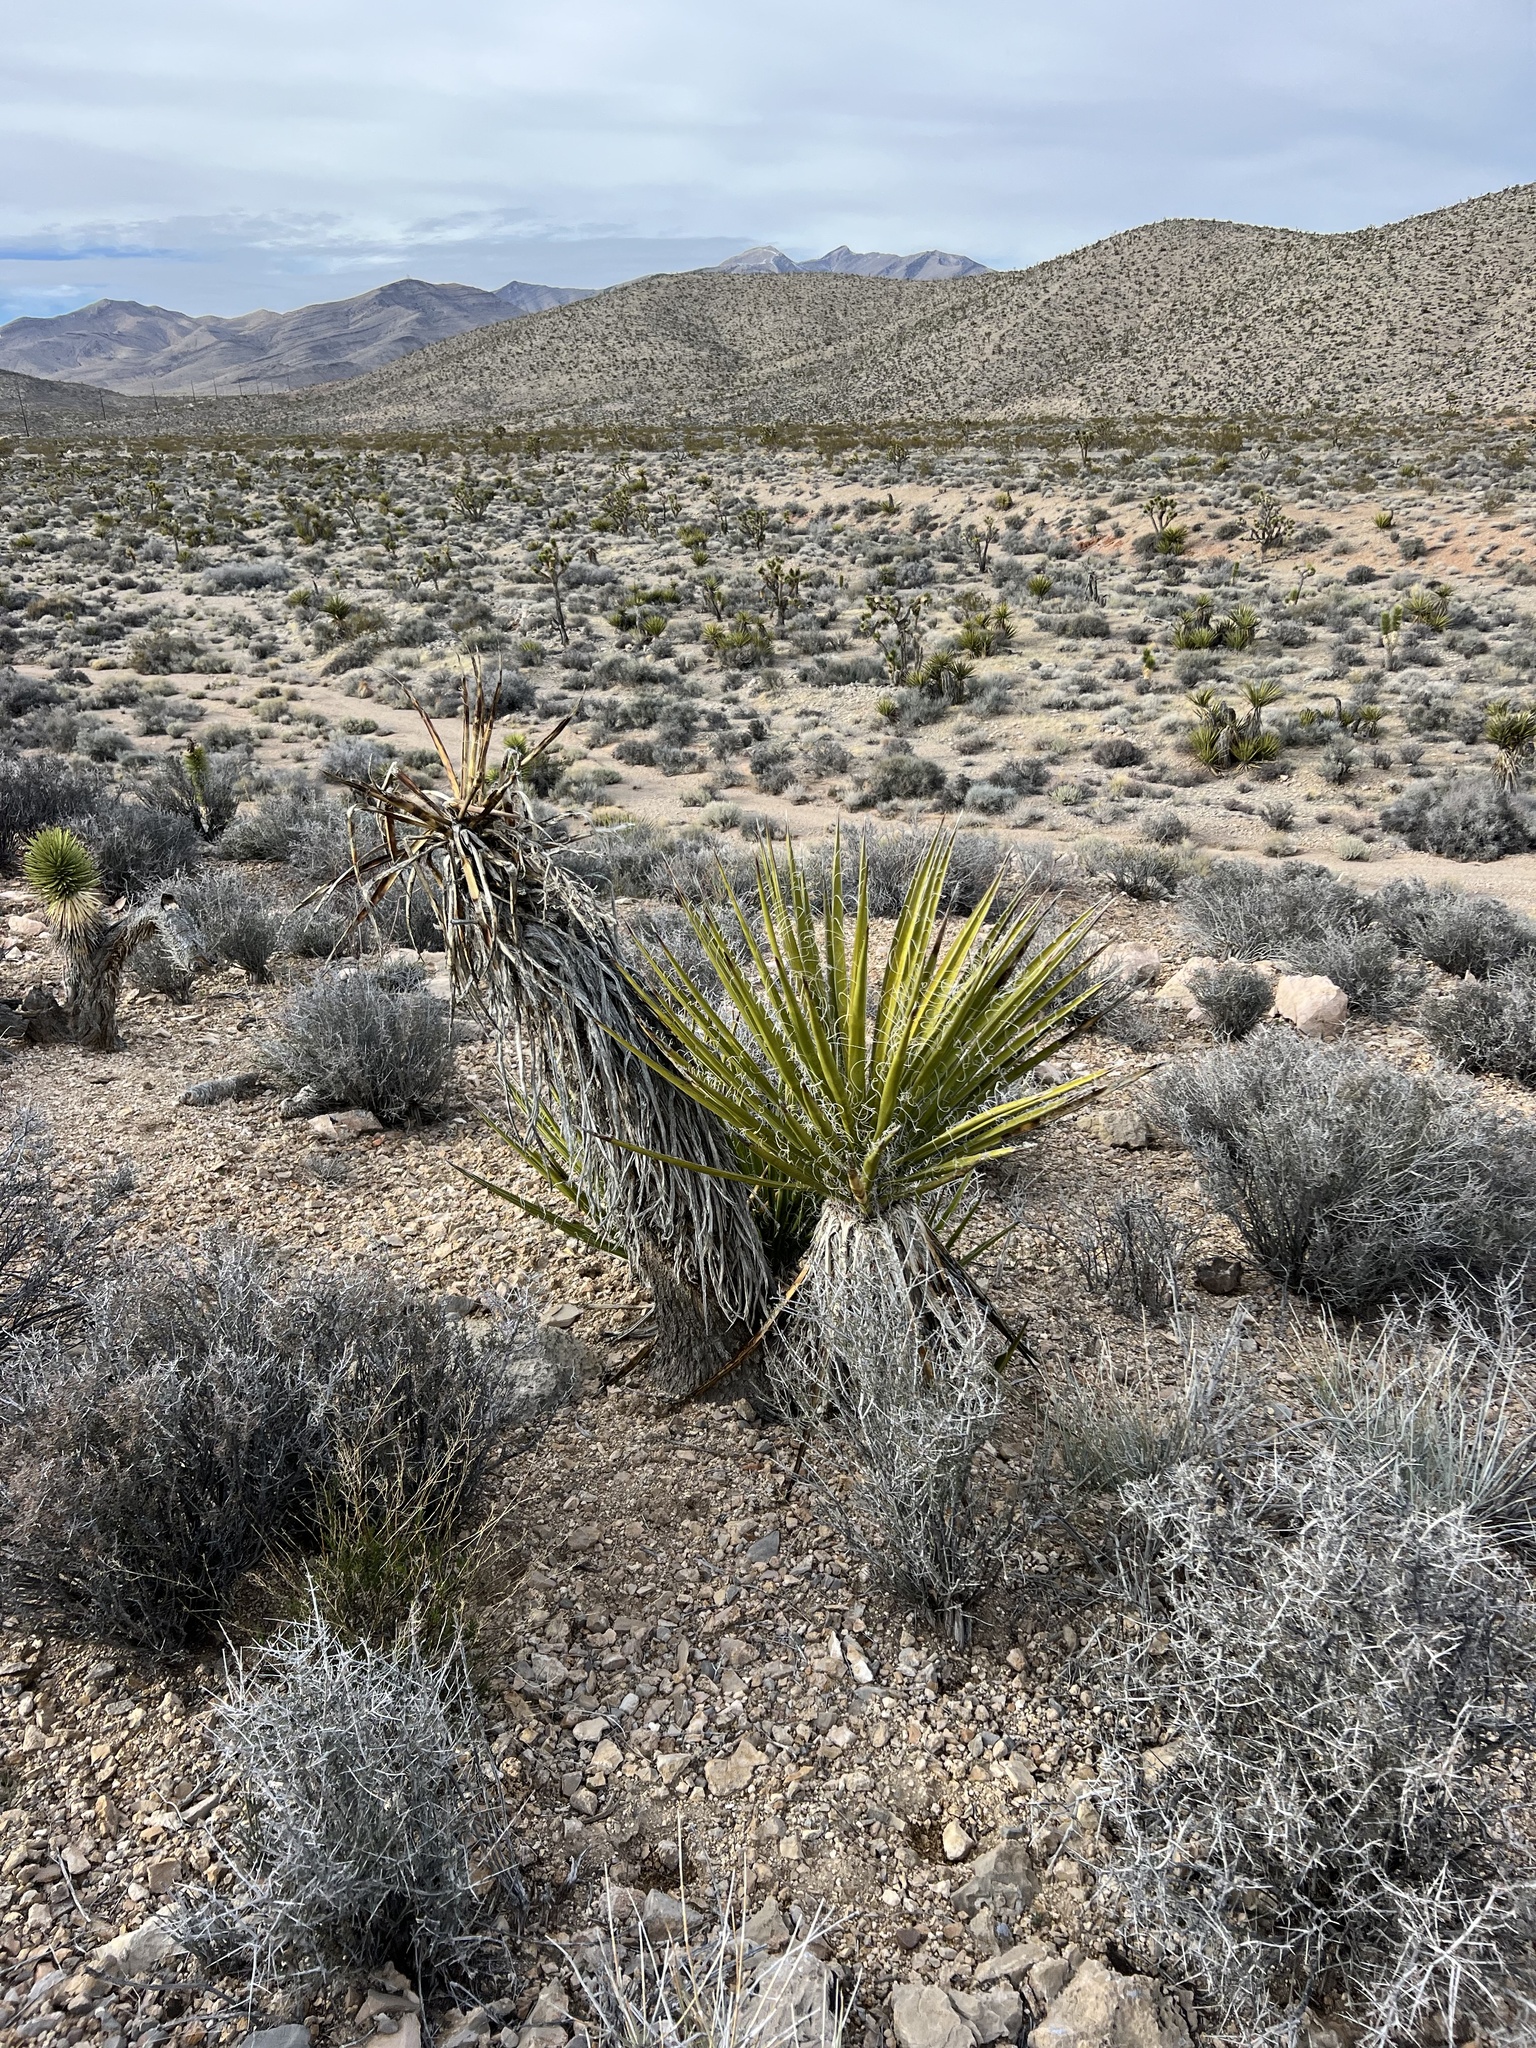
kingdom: Plantae
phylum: Tracheophyta
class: Liliopsida
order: Asparagales
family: Asparagaceae
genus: Yucca
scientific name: Yucca schidigera
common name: Mojave yucca
